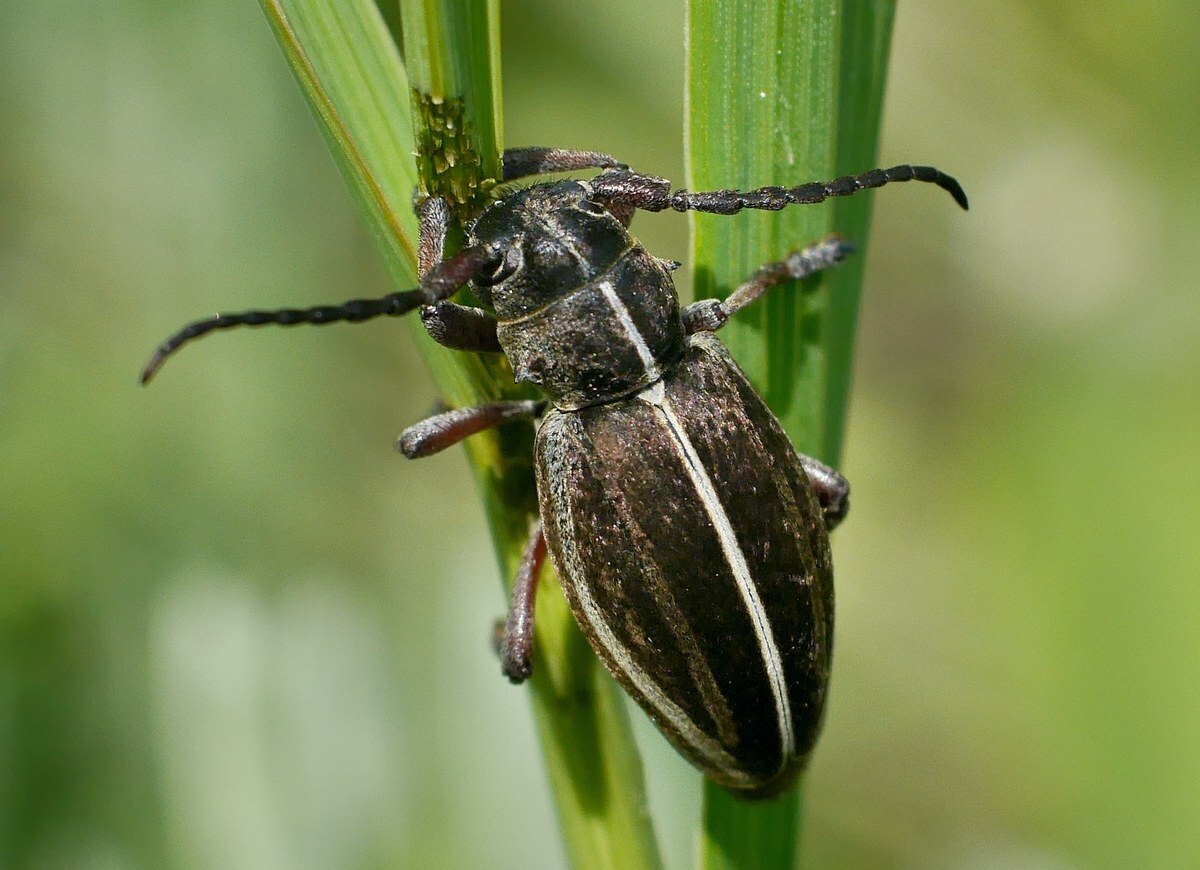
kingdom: Animalia
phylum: Arthropoda
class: Insecta
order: Coleoptera
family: Cerambycidae
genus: Dorcadion
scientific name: Dorcadion holosericeum
